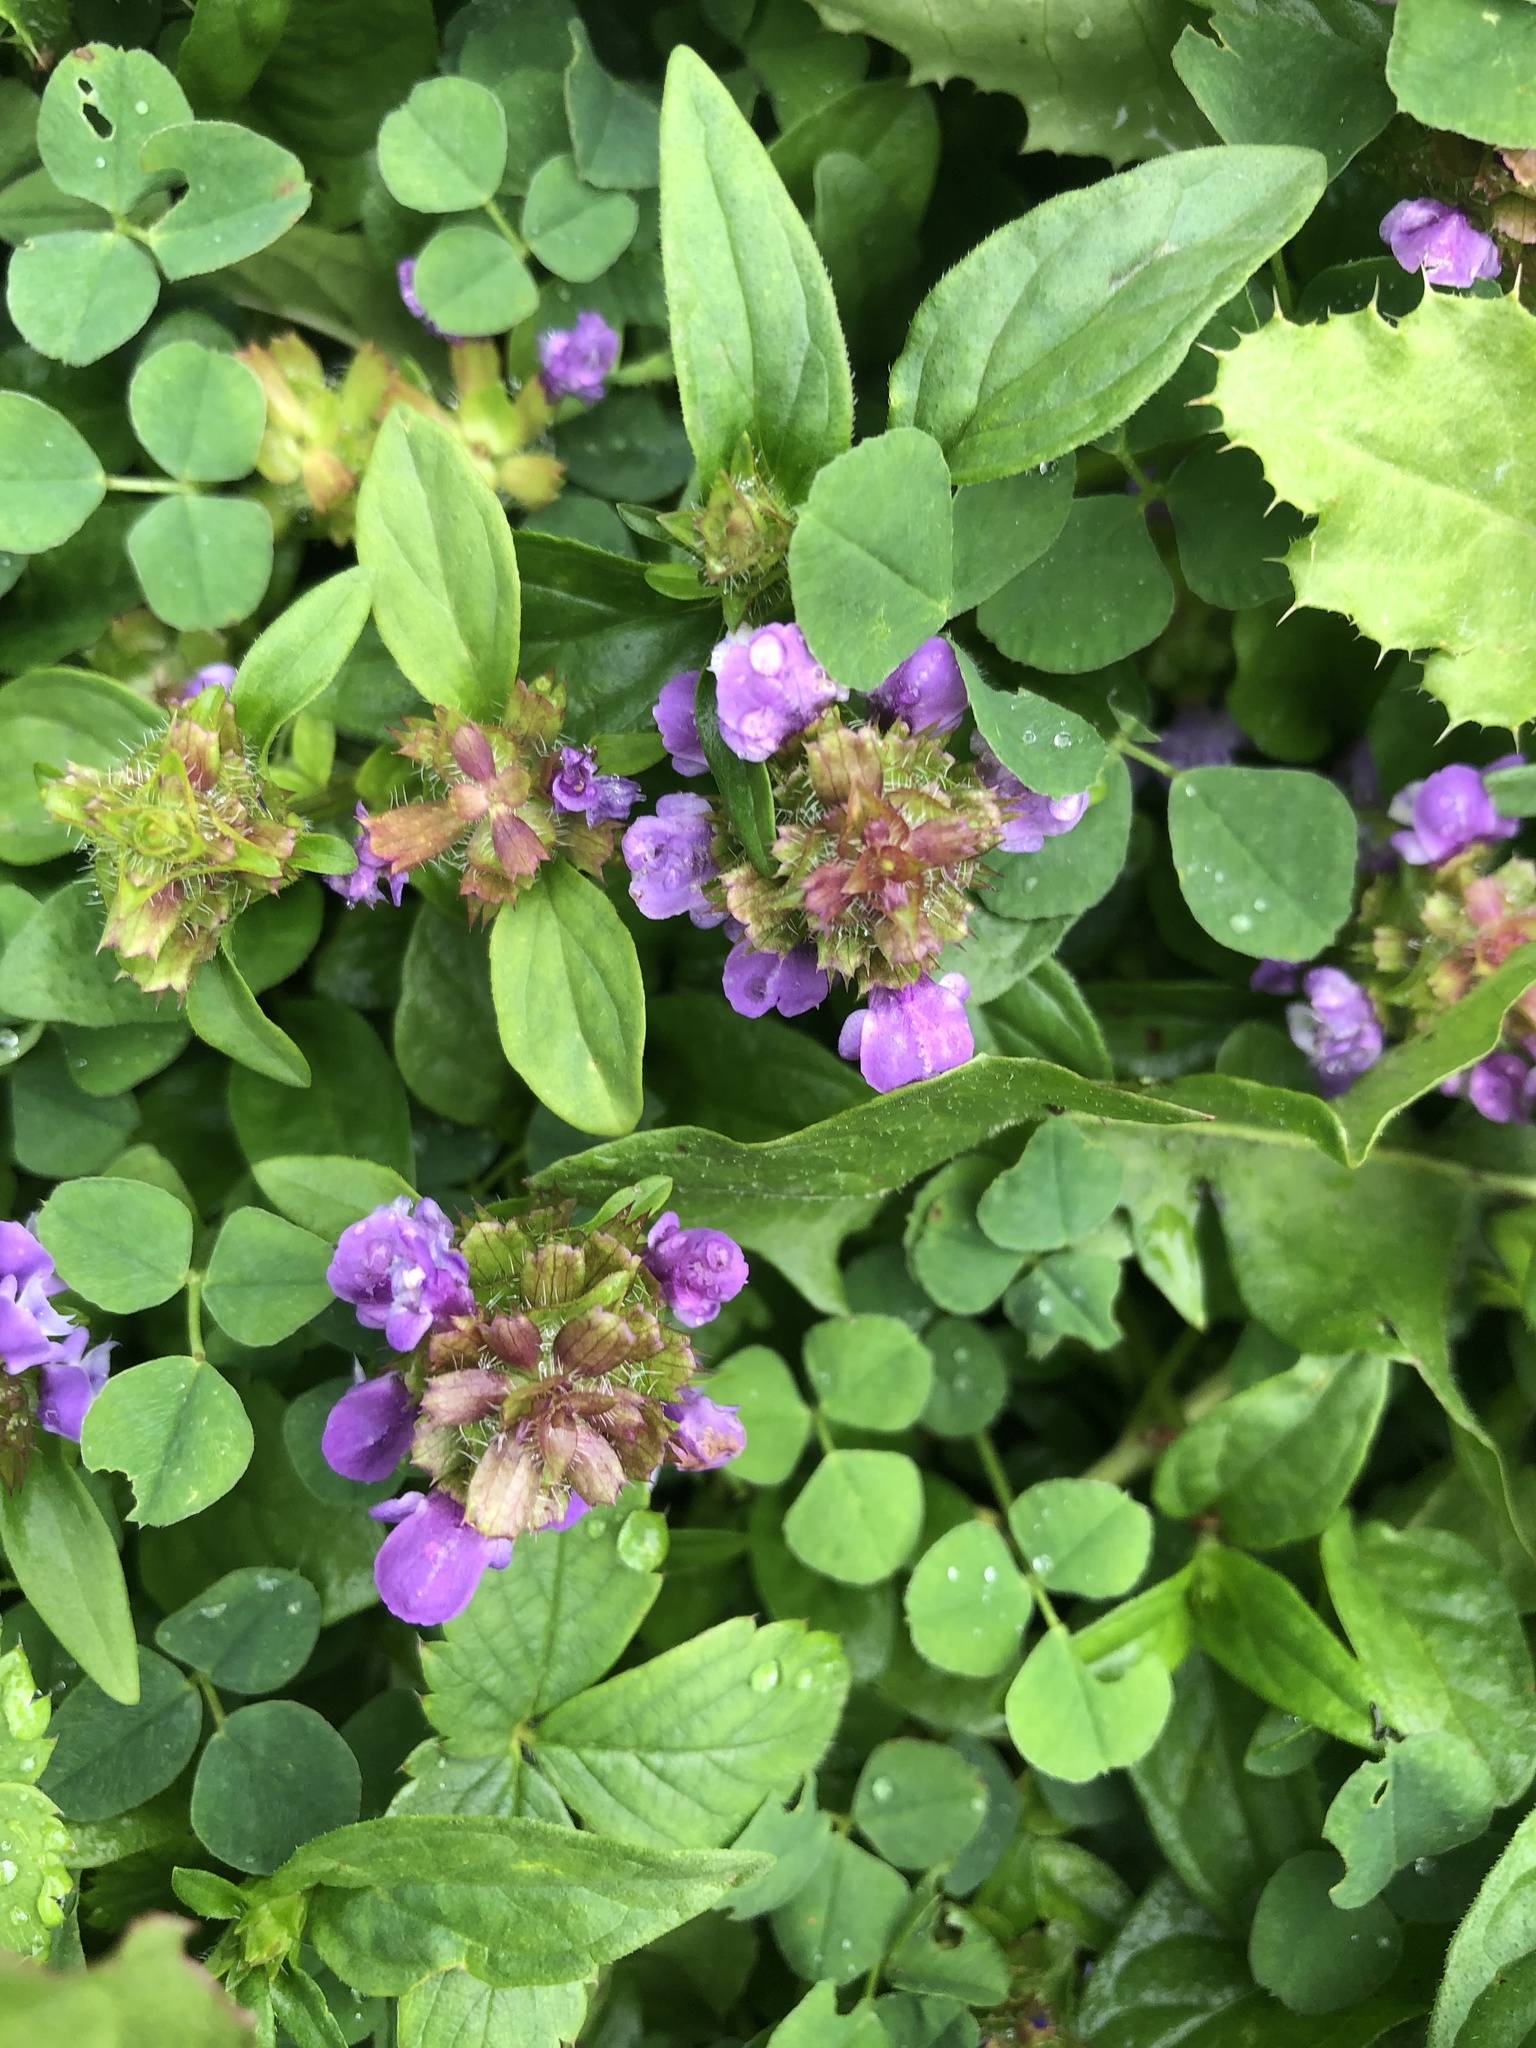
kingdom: Plantae
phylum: Tracheophyta
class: Magnoliopsida
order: Lamiales
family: Lamiaceae
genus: Prunella
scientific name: Prunella vulgaris
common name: Heal-all
